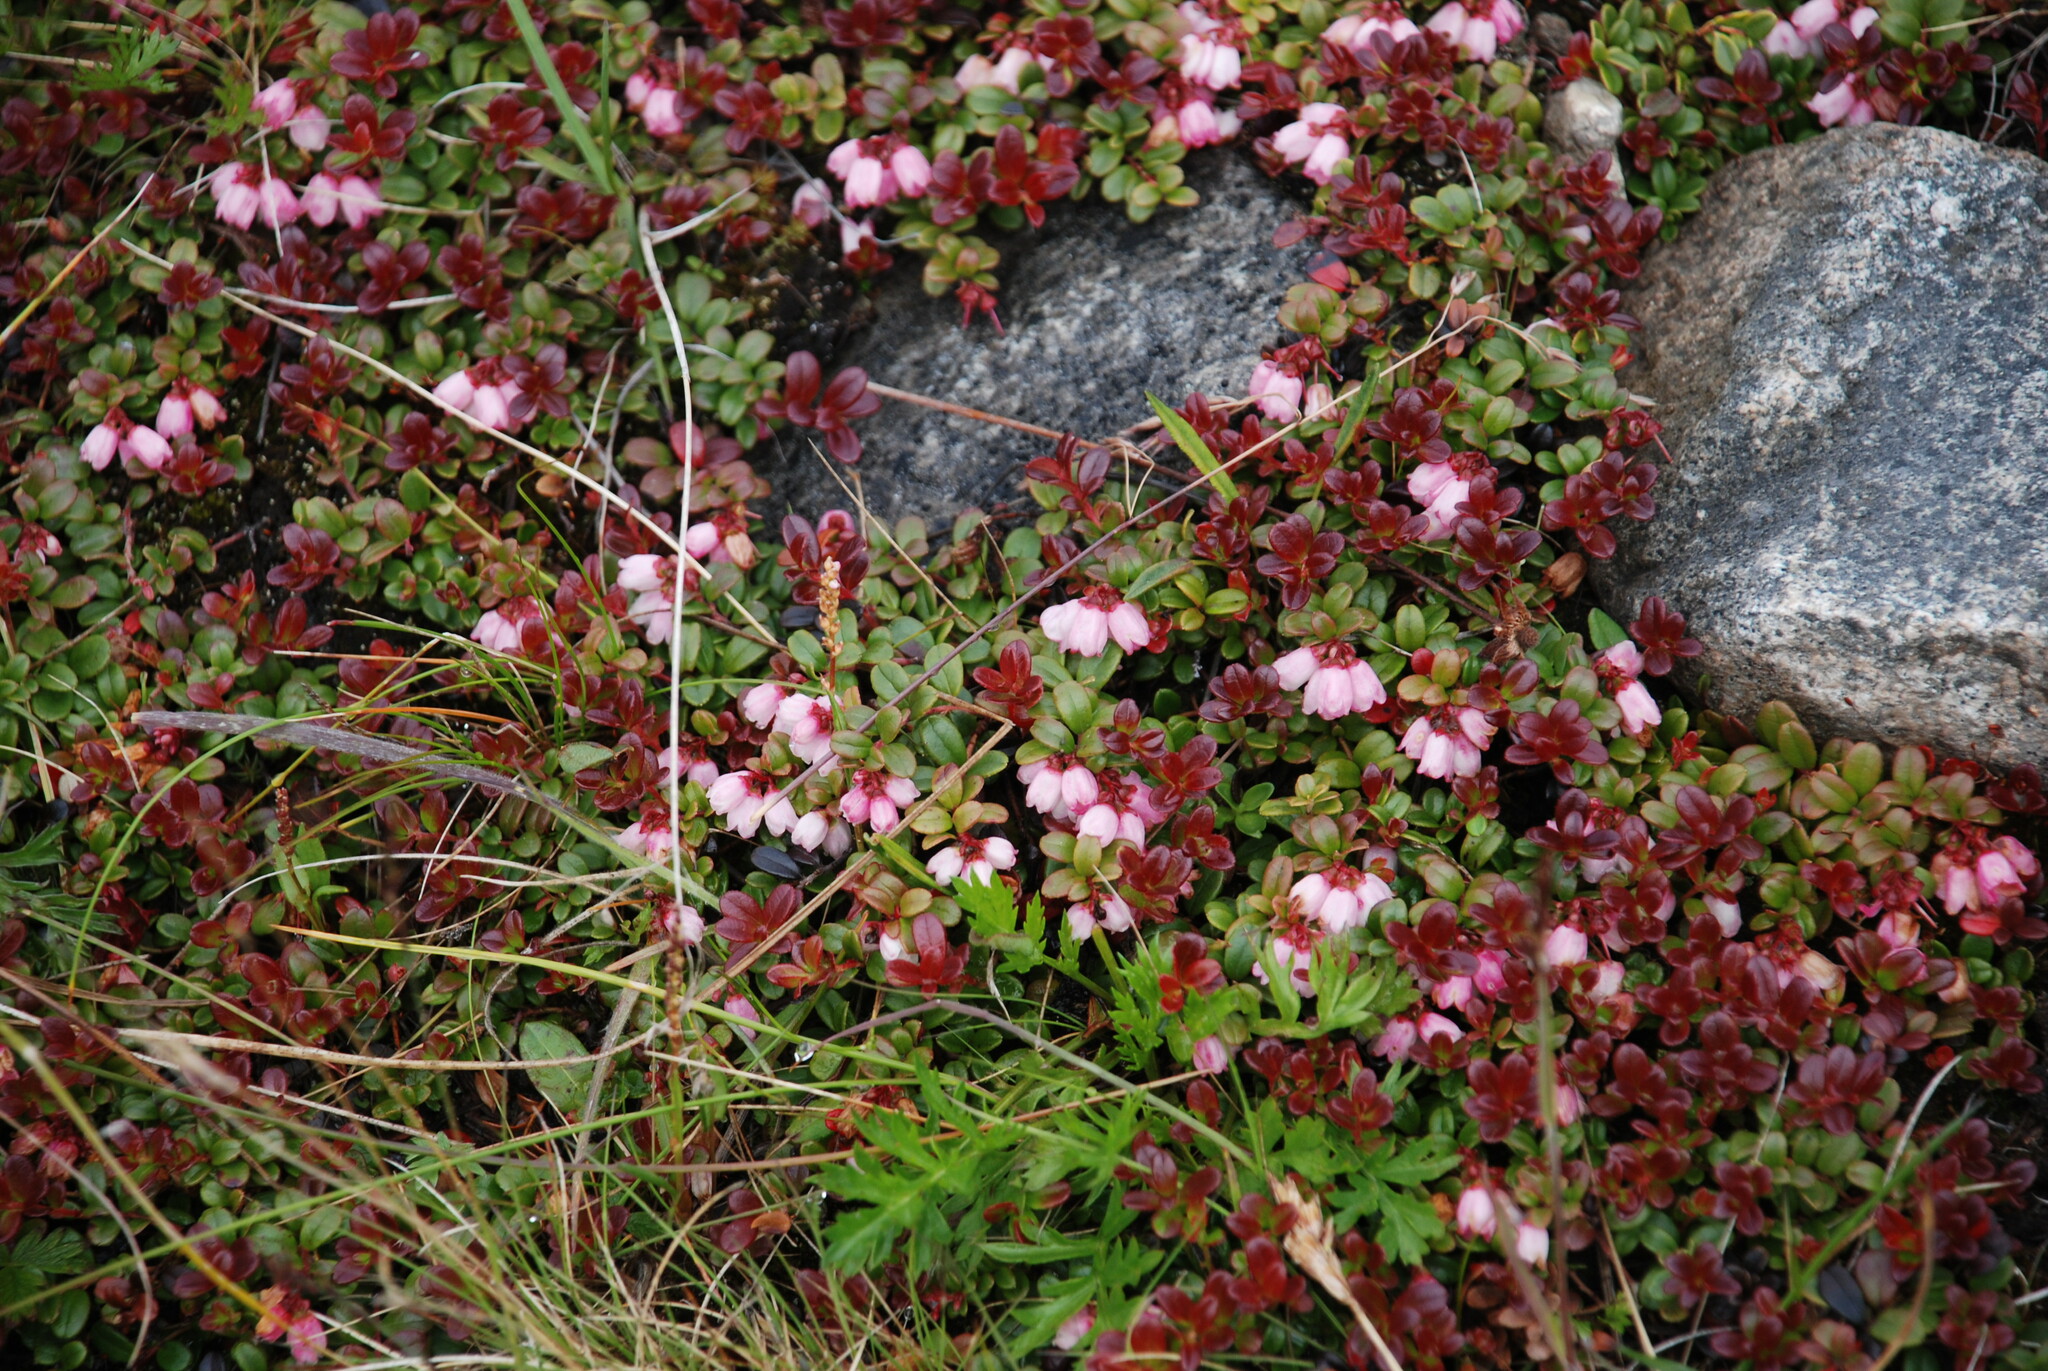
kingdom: Plantae
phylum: Tracheophyta
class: Magnoliopsida
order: Ericales
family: Ericaceae
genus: Vaccinium
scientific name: Vaccinium vitis-idaea
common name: Cowberry
